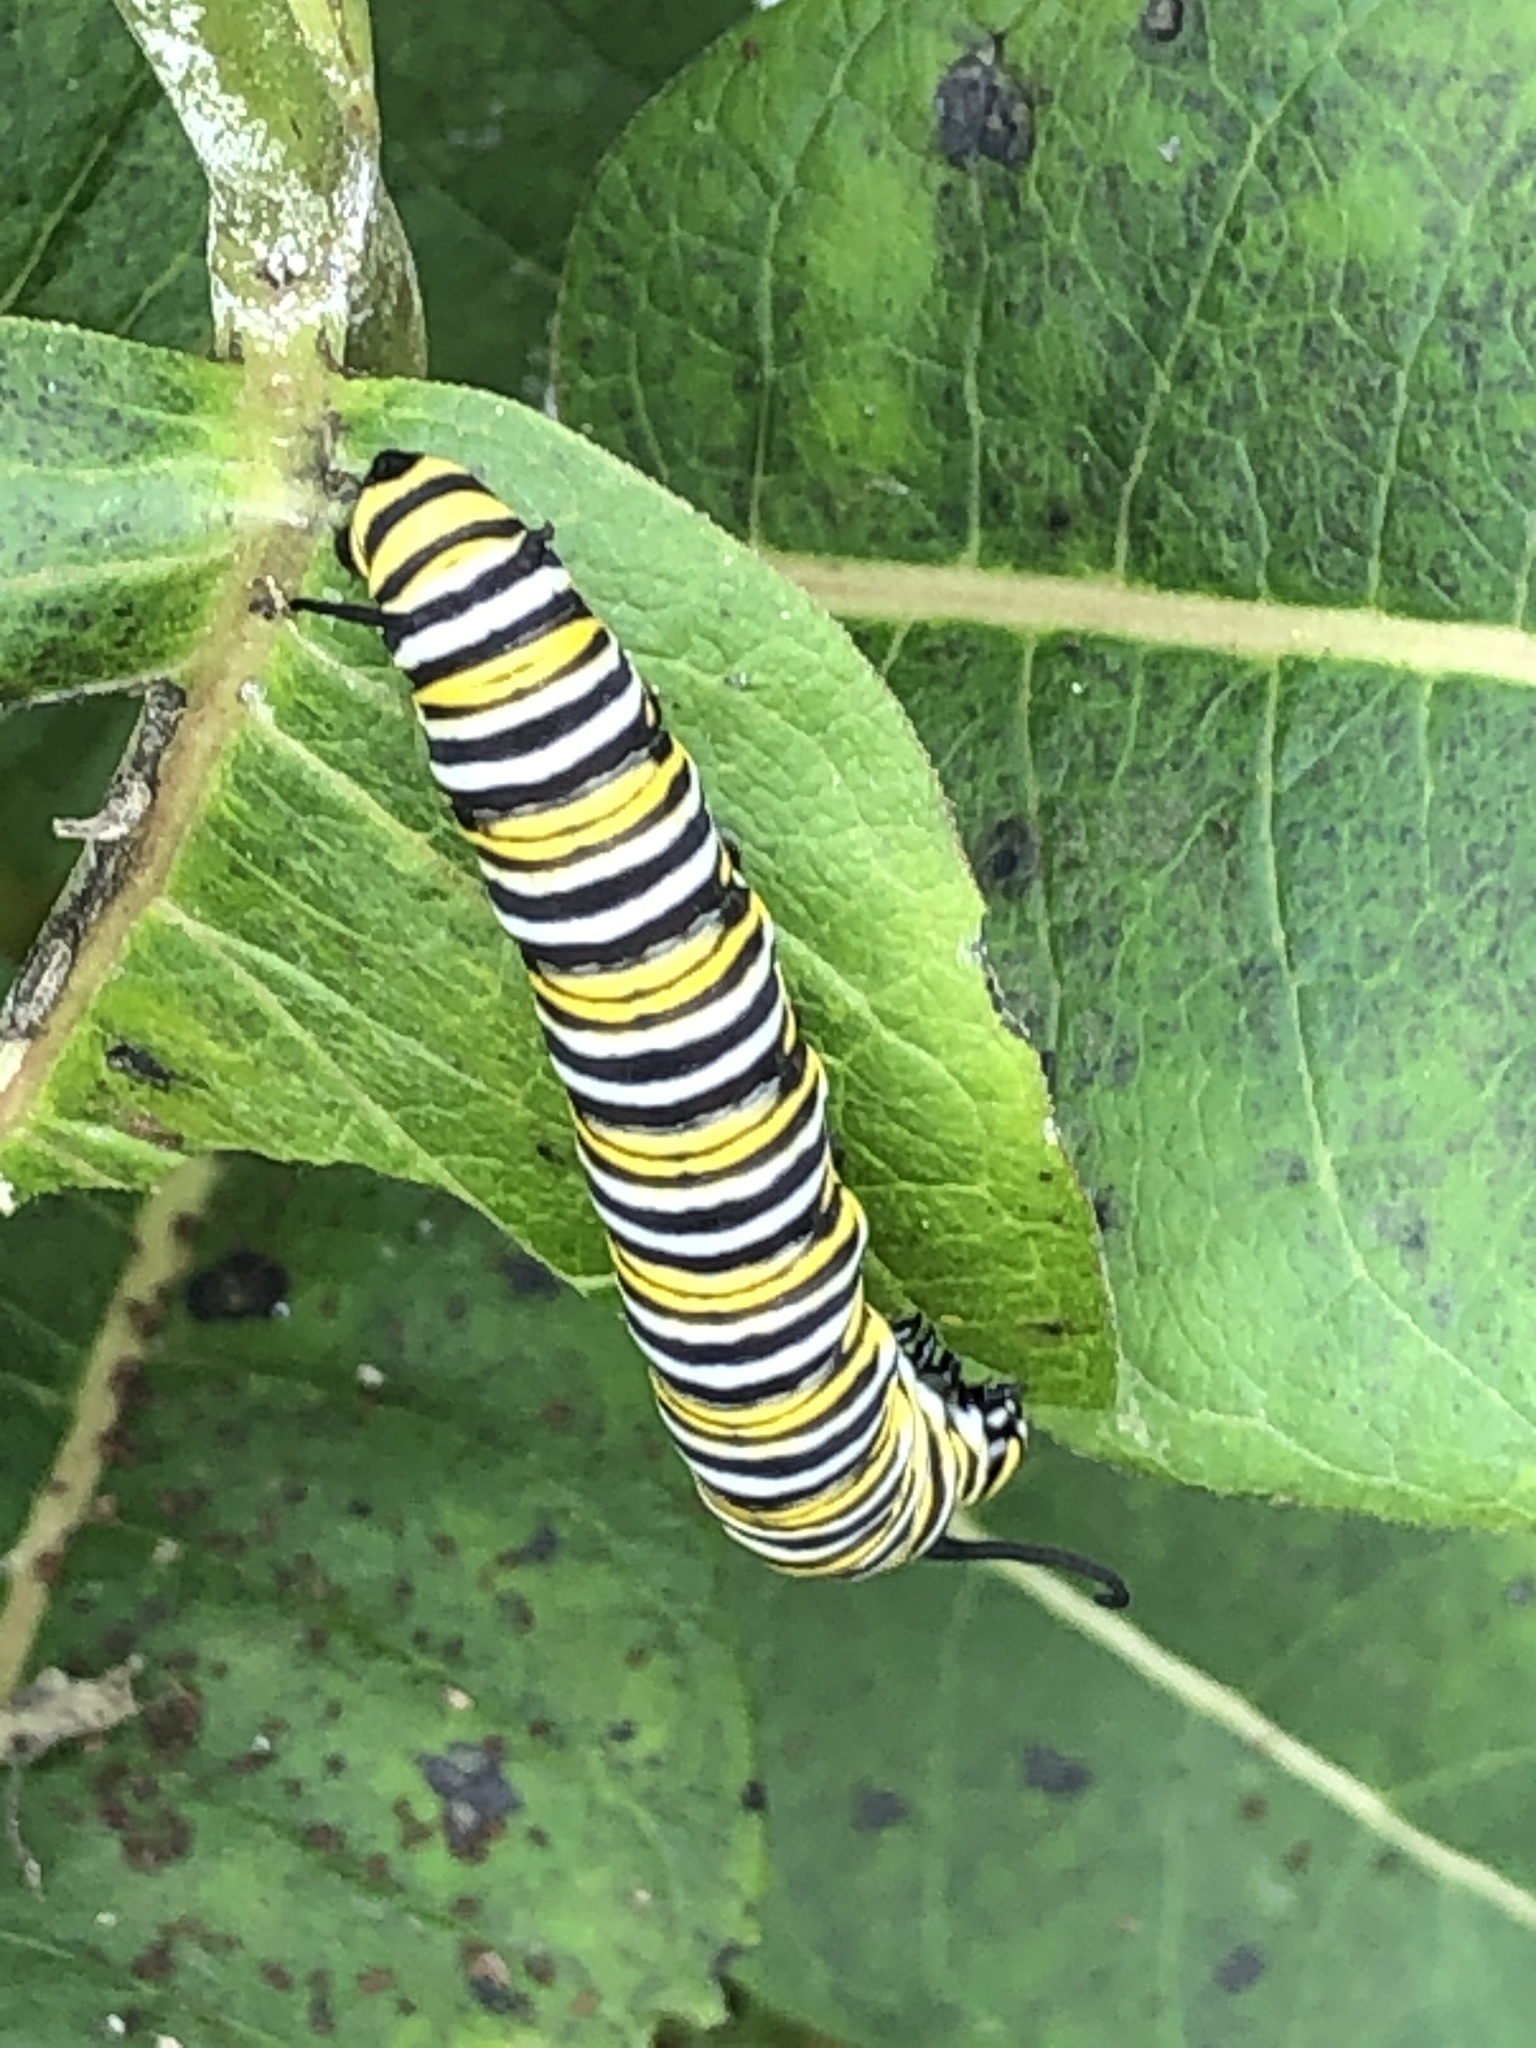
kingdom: Animalia
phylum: Arthropoda
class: Insecta
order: Lepidoptera
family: Nymphalidae
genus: Danaus
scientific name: Danaus plexippus
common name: Monarch
